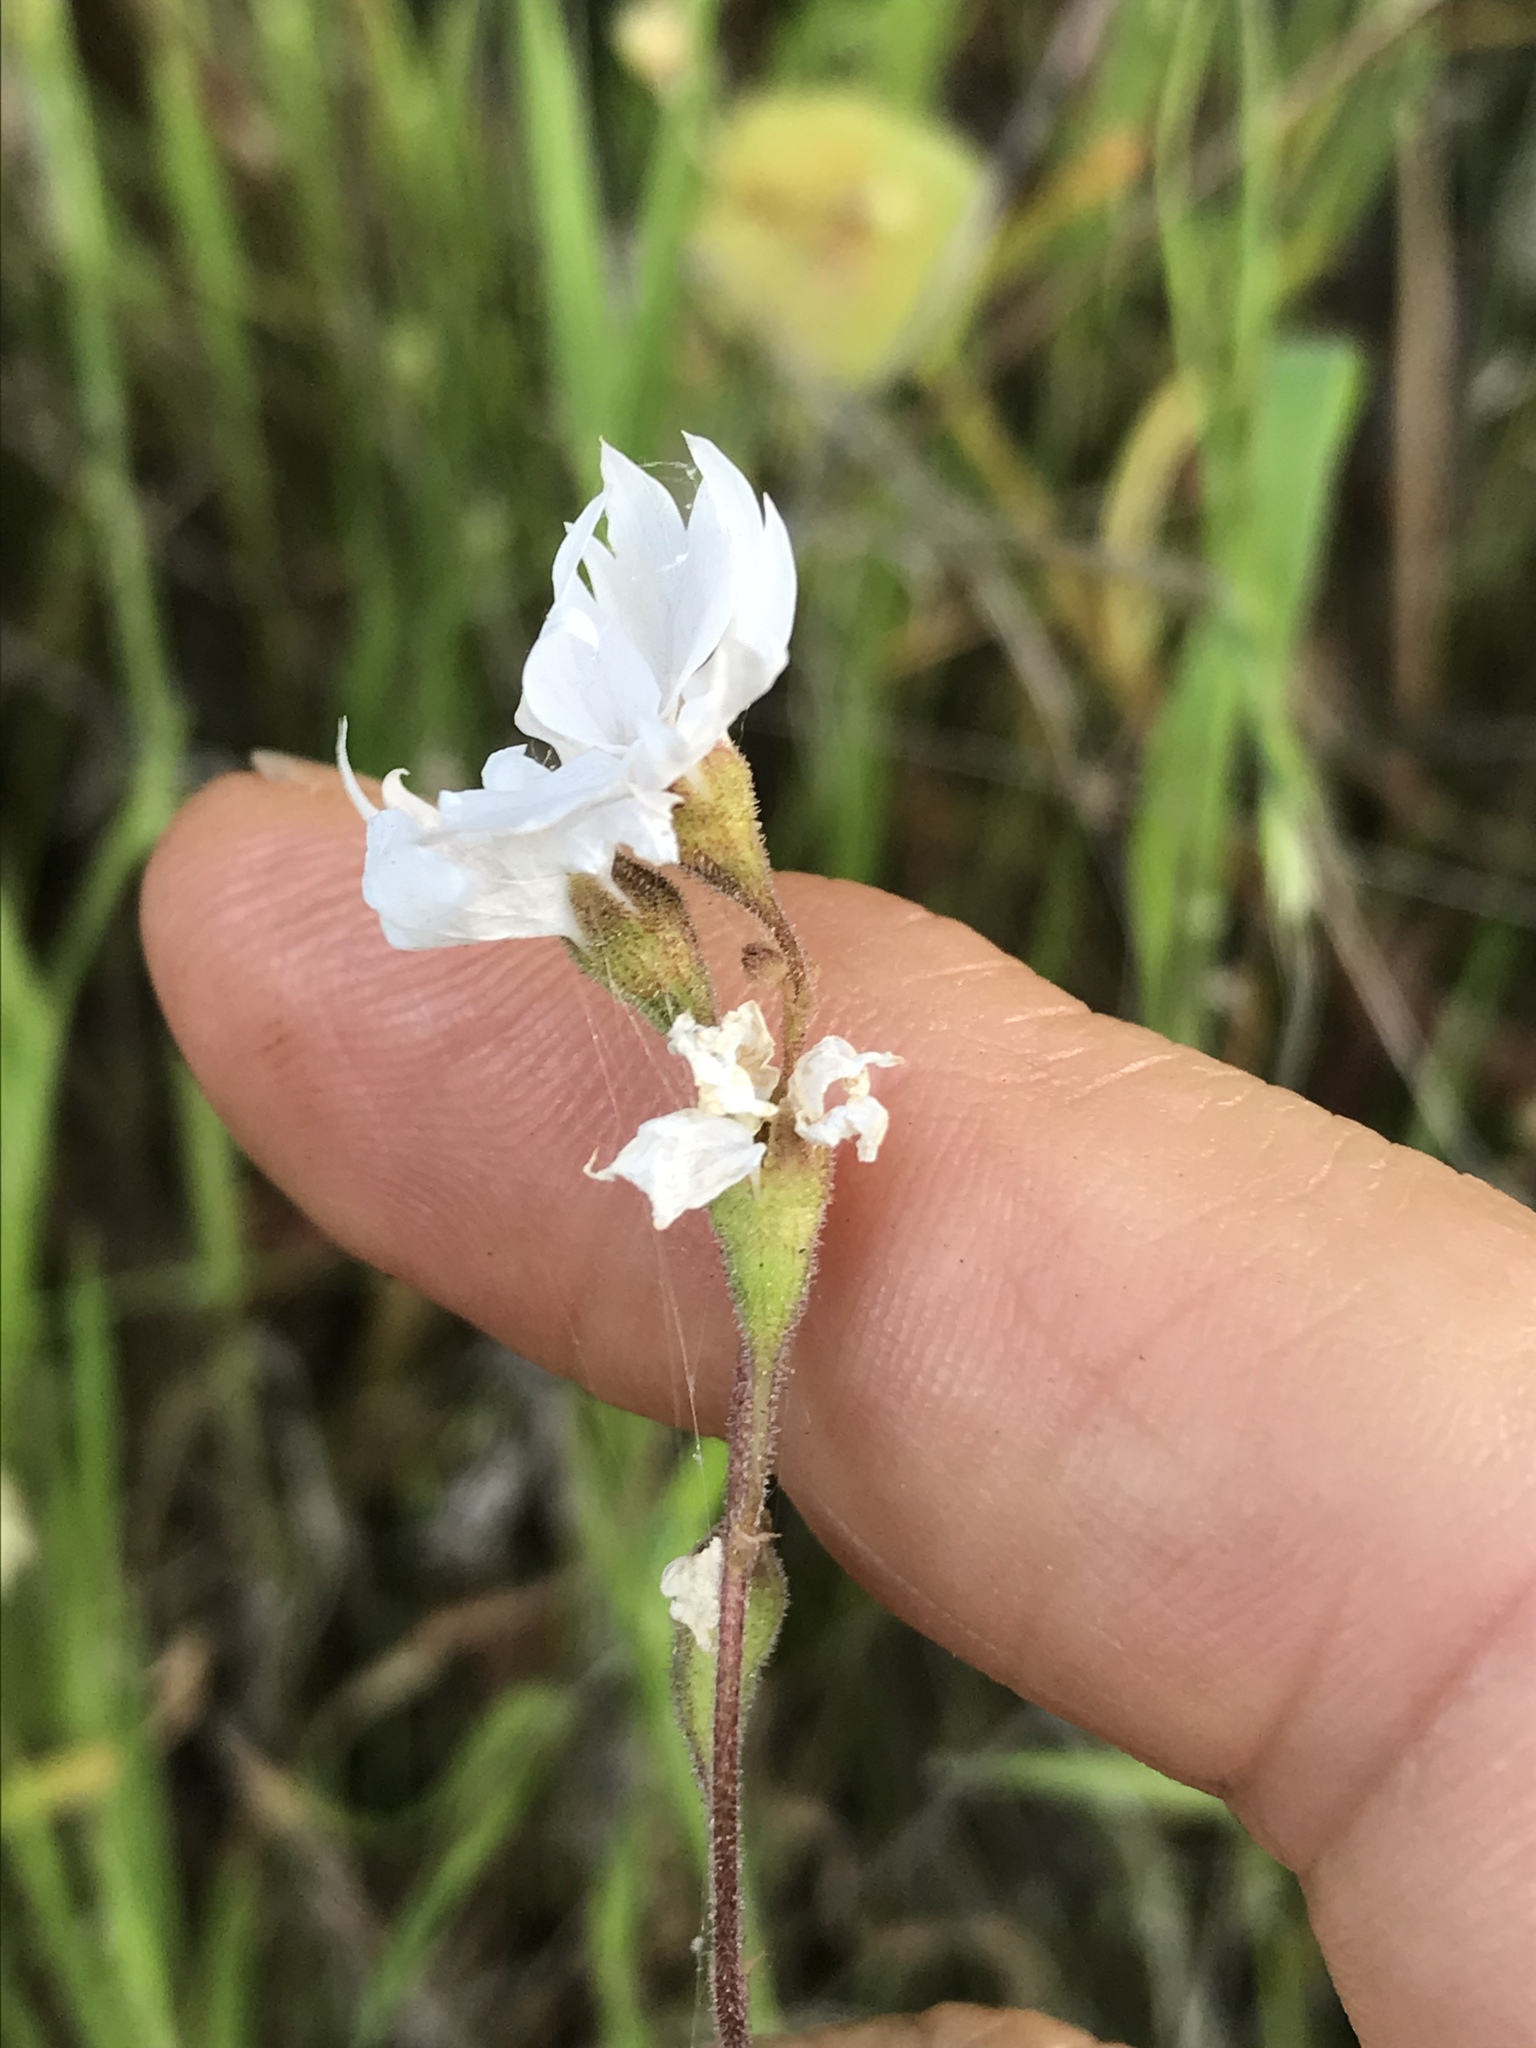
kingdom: Plantae
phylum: Tracheophyta
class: Magnoliopsida
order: Saxifragales
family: Saxifragaceae
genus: Lithophragma
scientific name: Lithophragma affine
